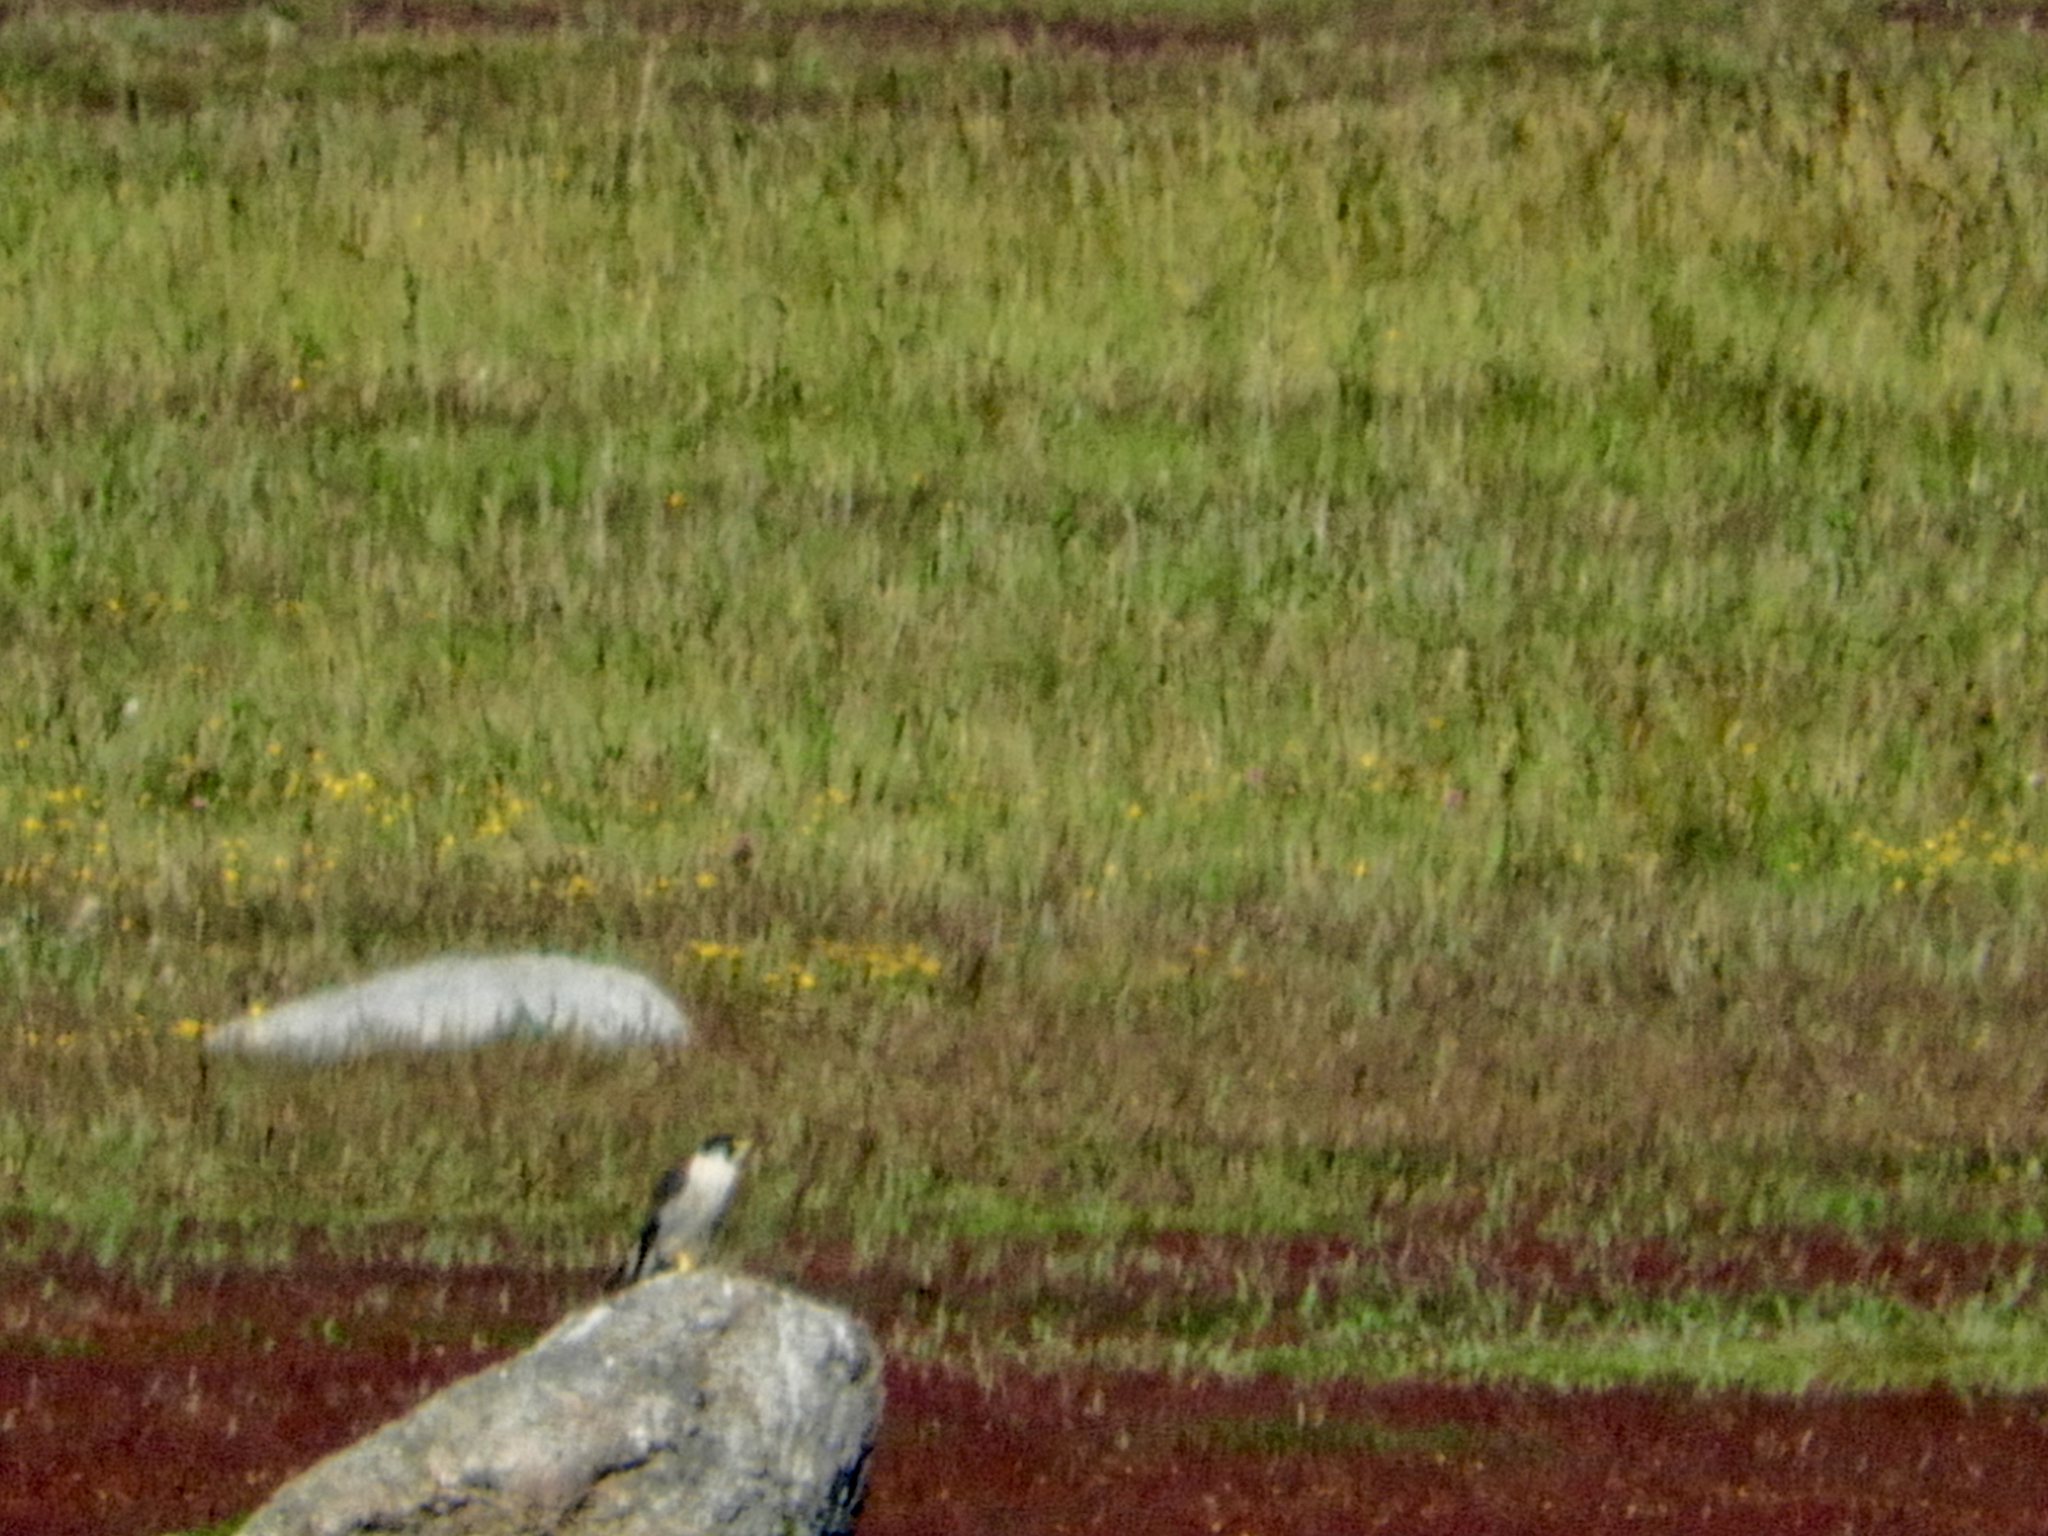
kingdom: Animalia
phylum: Chordata
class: Aves
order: Falconiformes
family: Falconidae
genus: Falco
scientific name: Falco peregrinus
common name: Peregrine falcon
